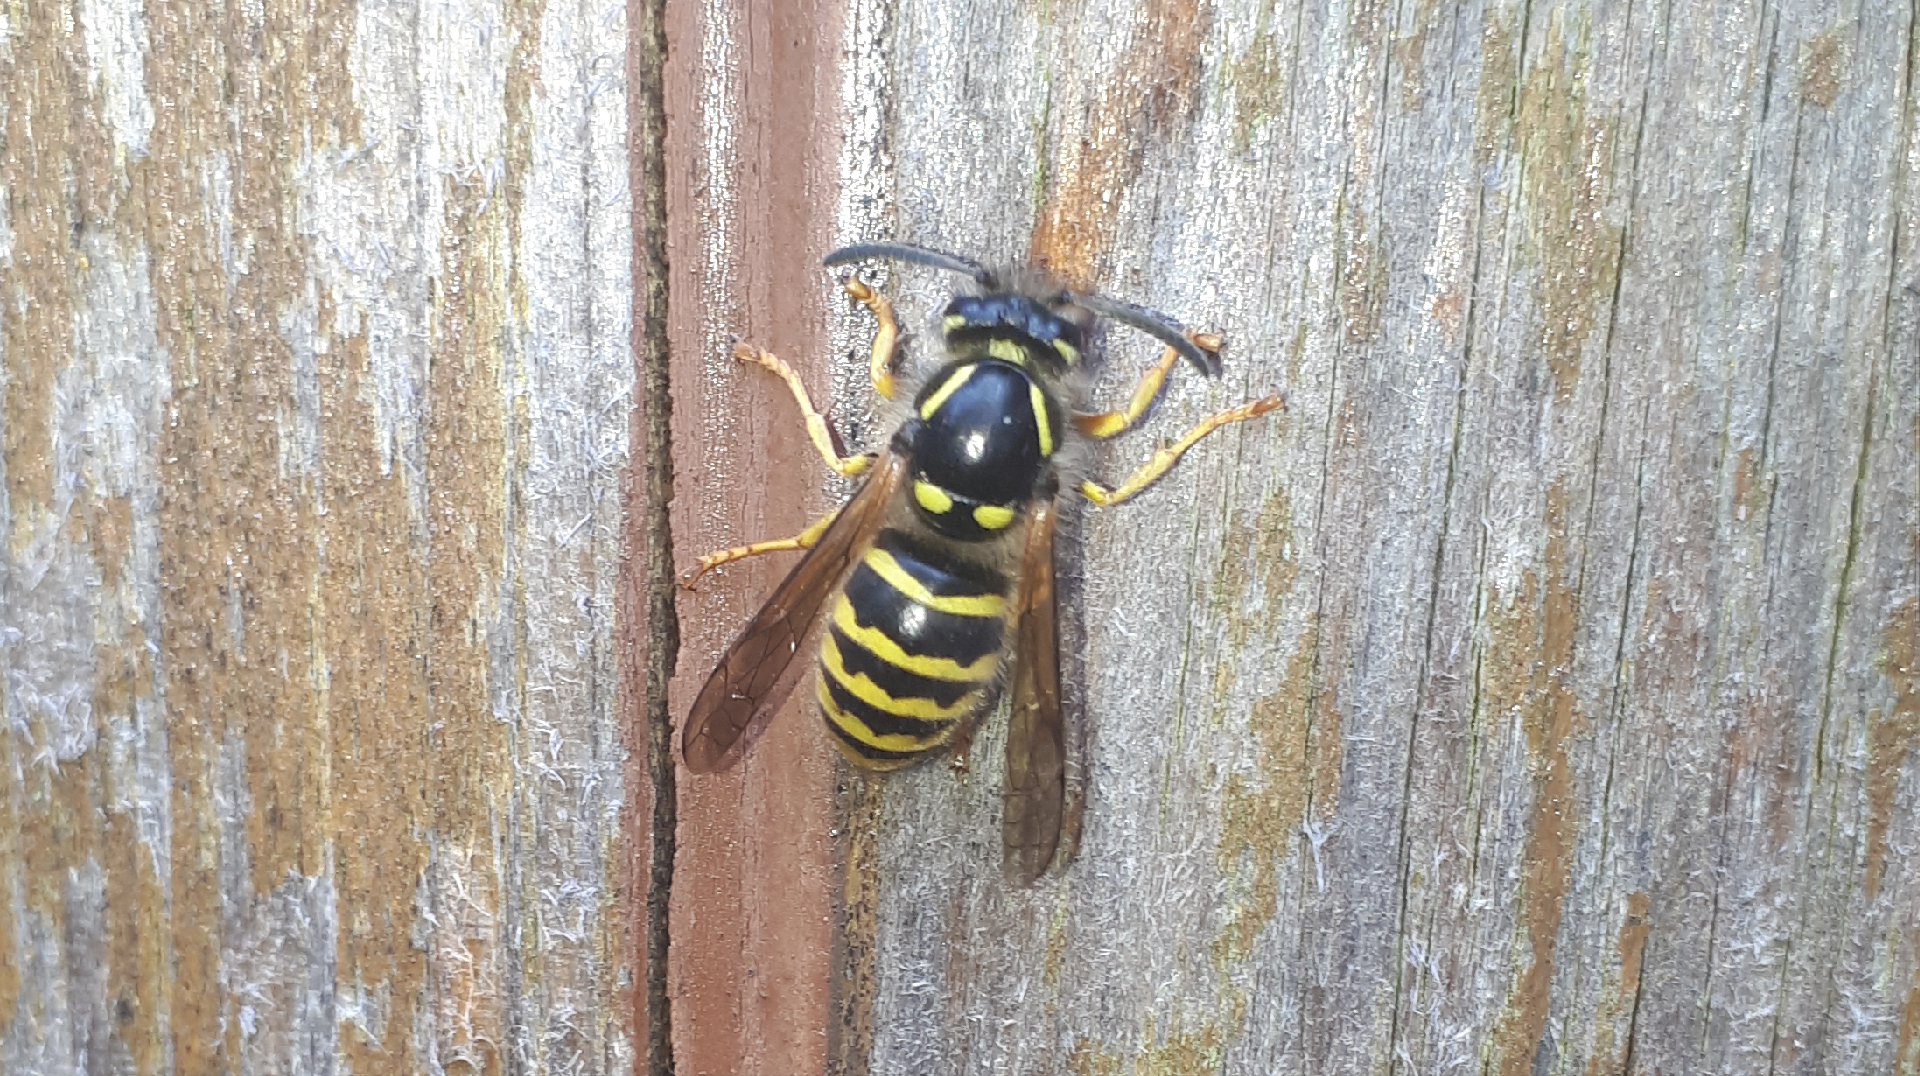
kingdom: Animalia
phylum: Arthropoda
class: Insecta
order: Hymenoptera
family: Vespidae
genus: Dolichovespula
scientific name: Dolichovespula sylvestris
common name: Tree wasp
